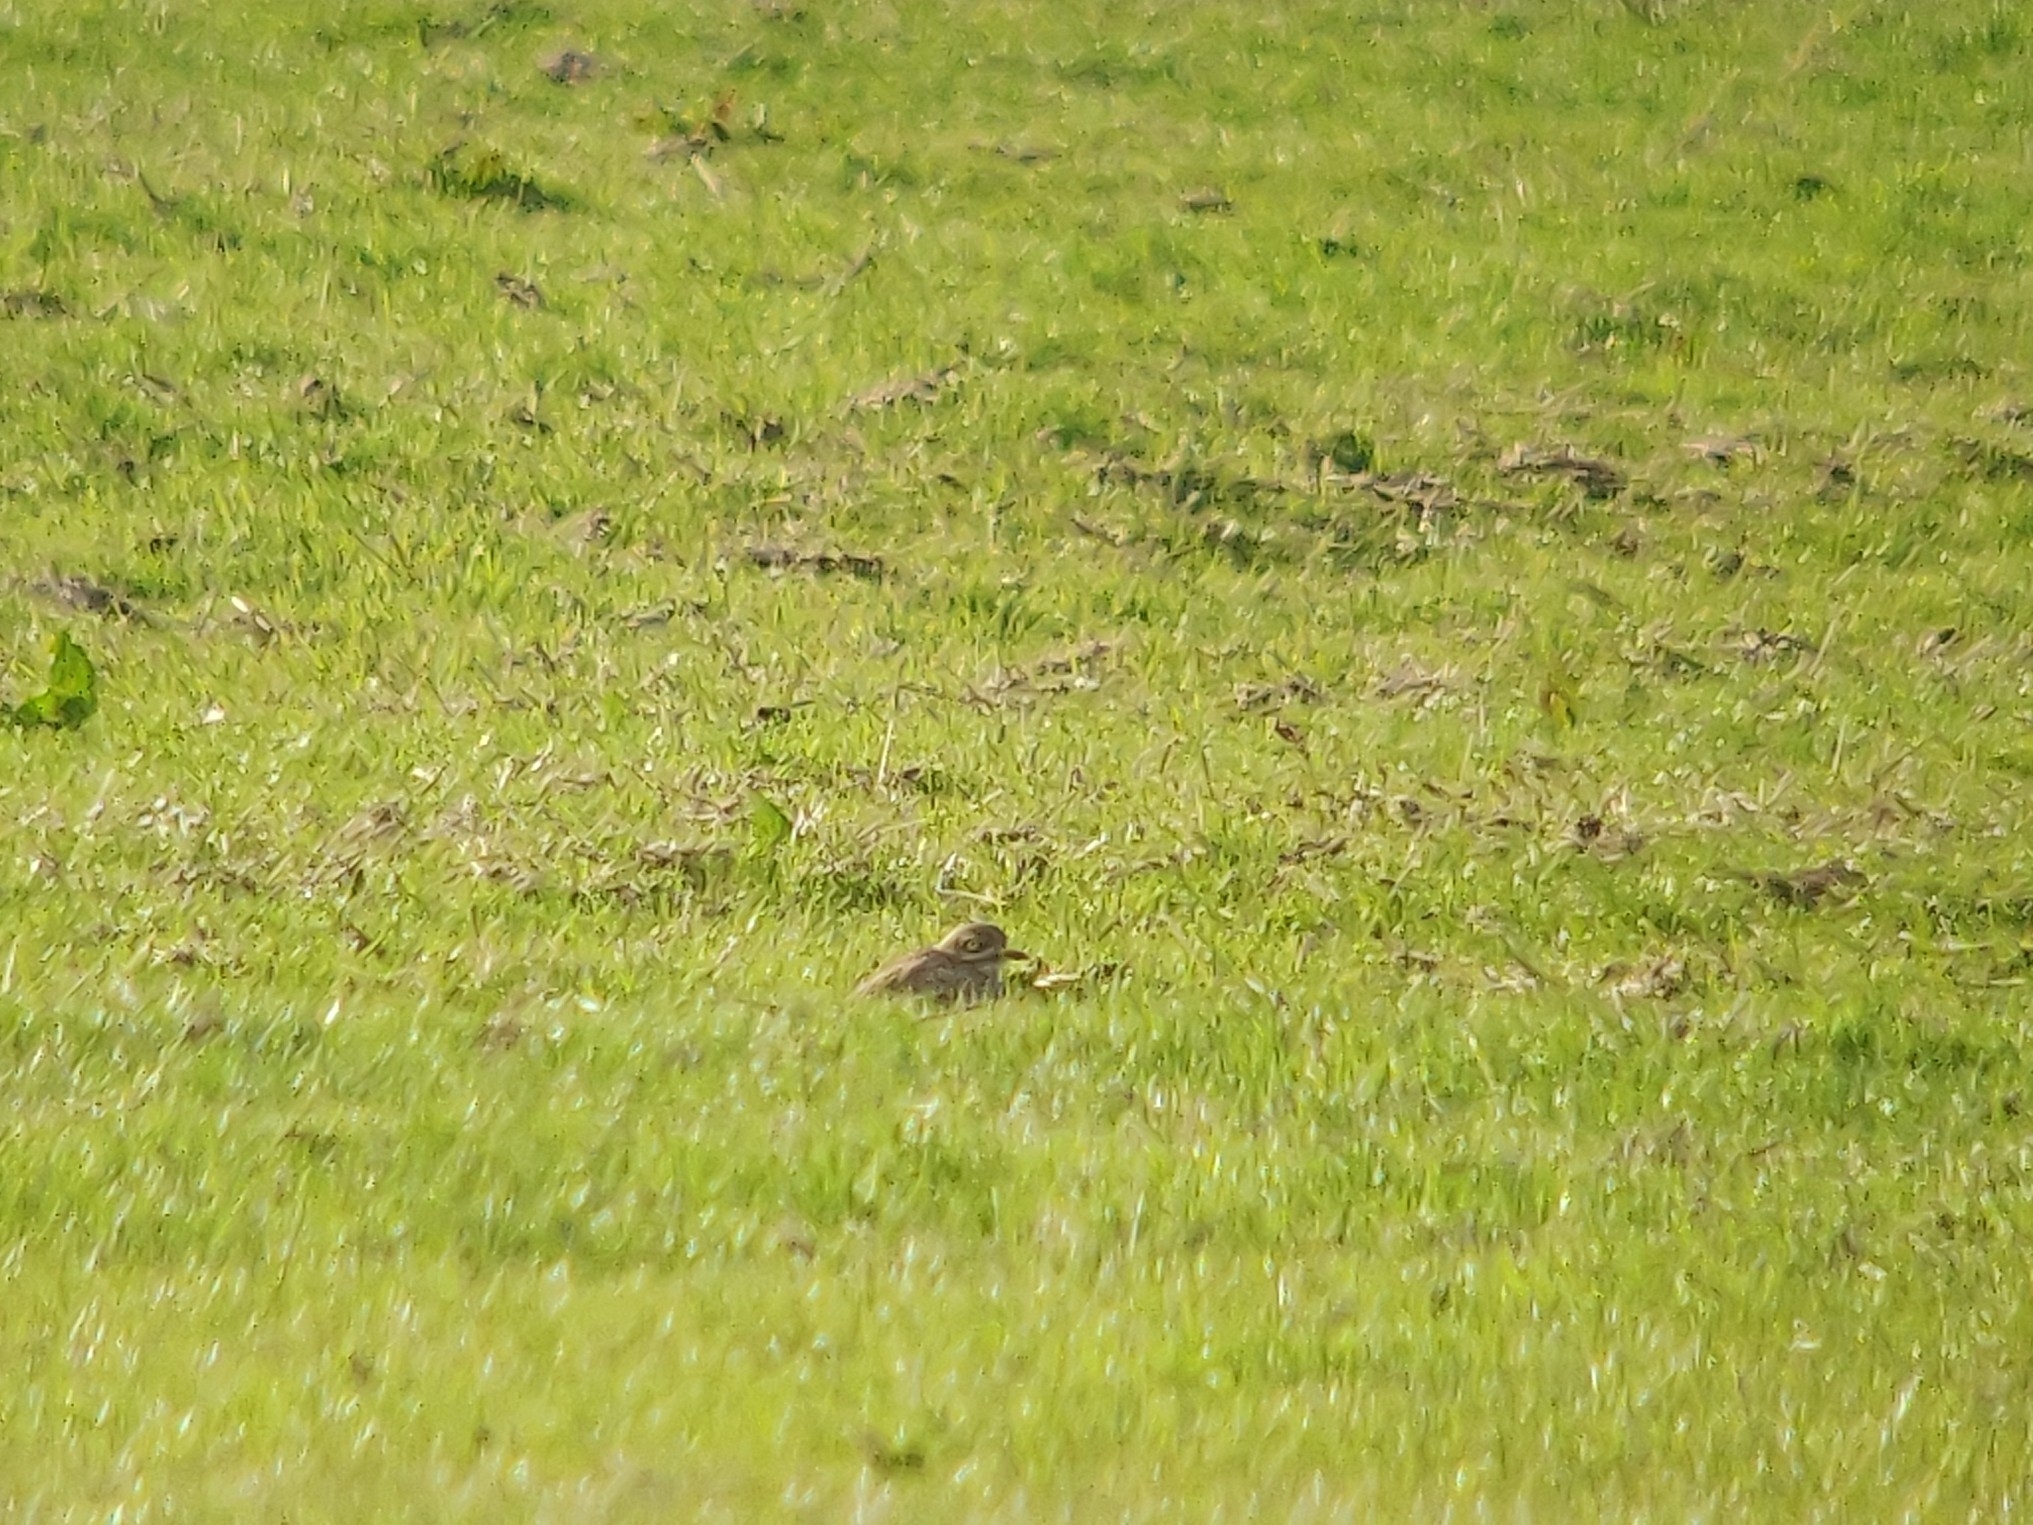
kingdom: Animalia
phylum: Chordata
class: Aves
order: Charadriiformes
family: Burhinidae
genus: Burhinus
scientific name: Burhinus oedicnemus
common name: Eurasian stone-curlew
